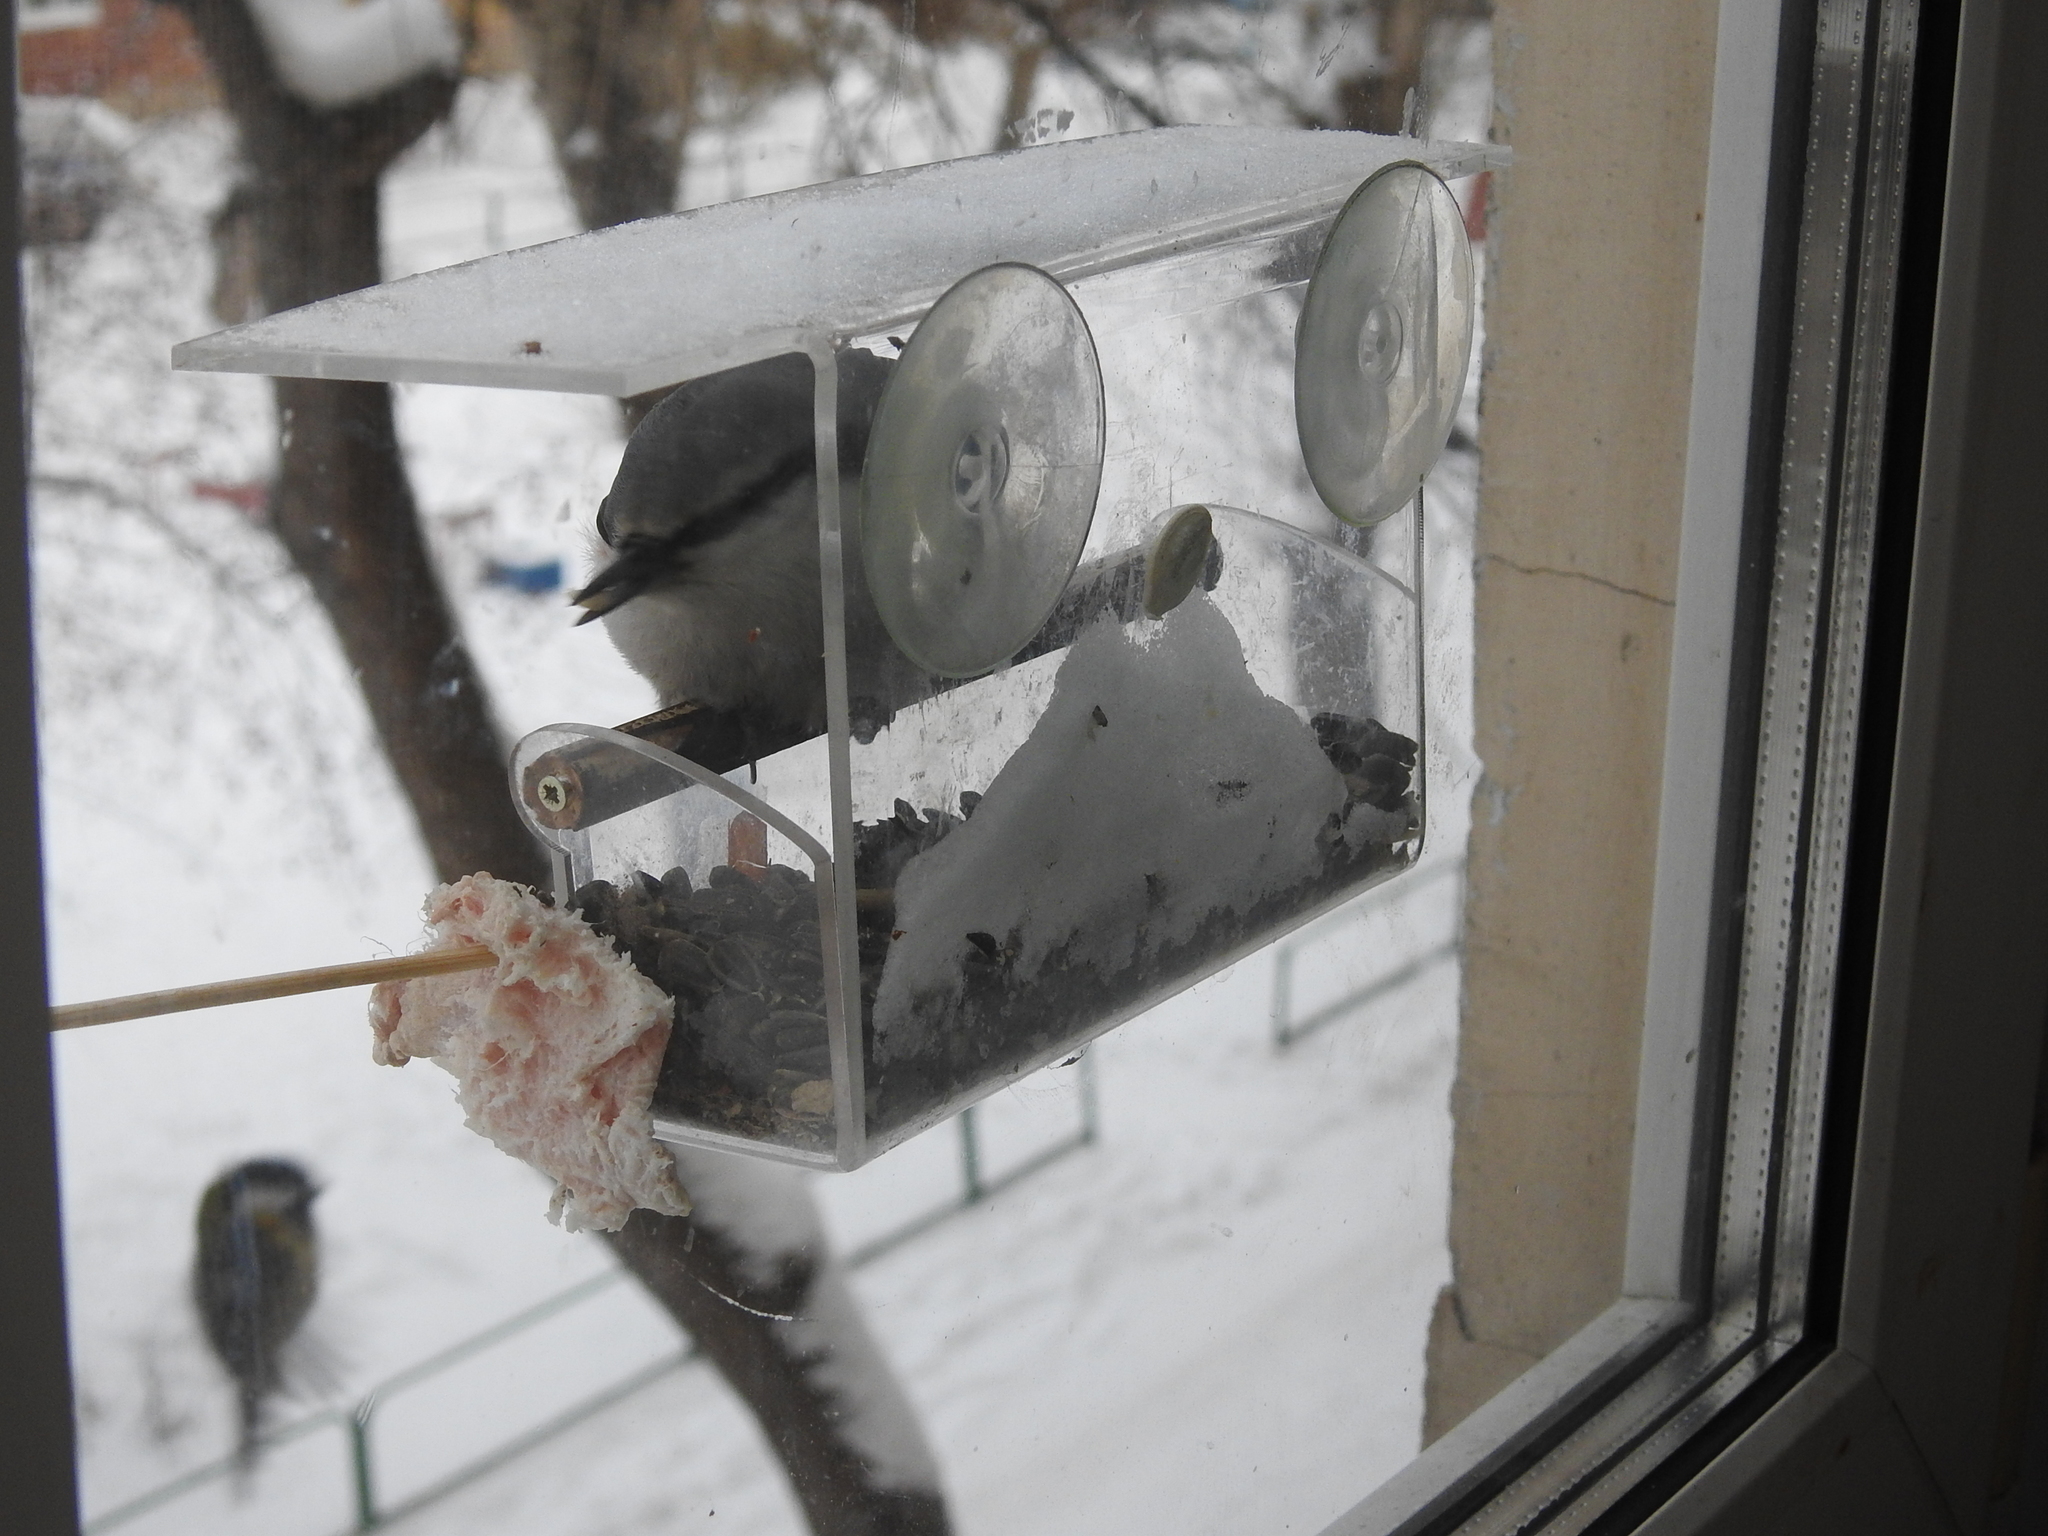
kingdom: Animalia
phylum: Chordata
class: Aves
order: Passeriformes
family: Sittidae
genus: Sitta
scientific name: Sitta europaea
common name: Eurasian nuthatch
